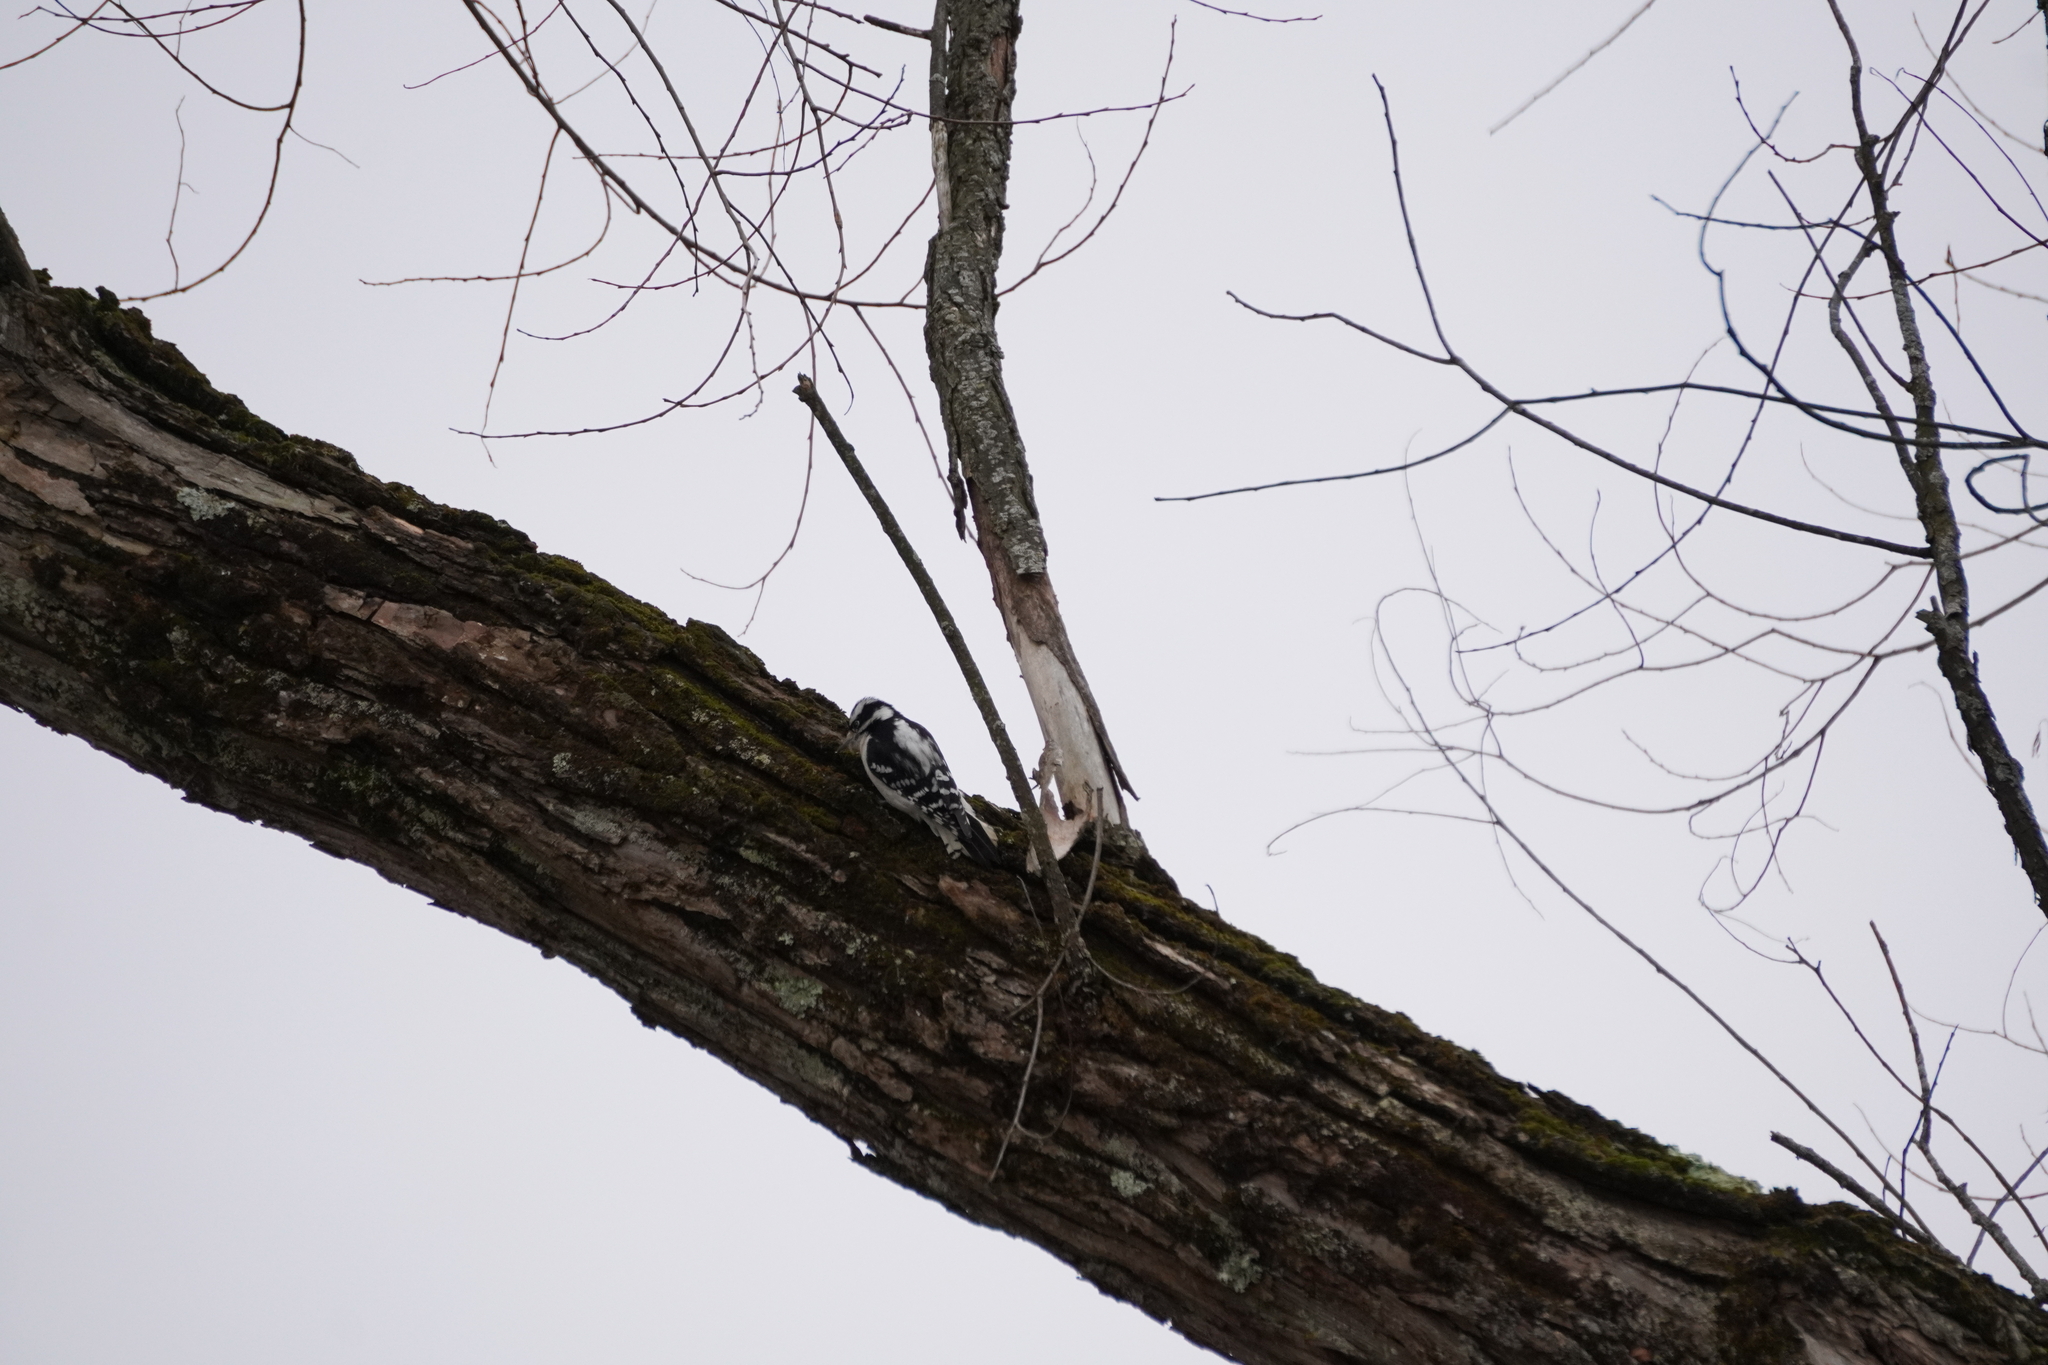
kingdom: Animalia
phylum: Chordata
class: Aves
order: Piciformes
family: Picidae
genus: Dryobates
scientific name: Dryobates pubescens
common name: Downy woodpecker
